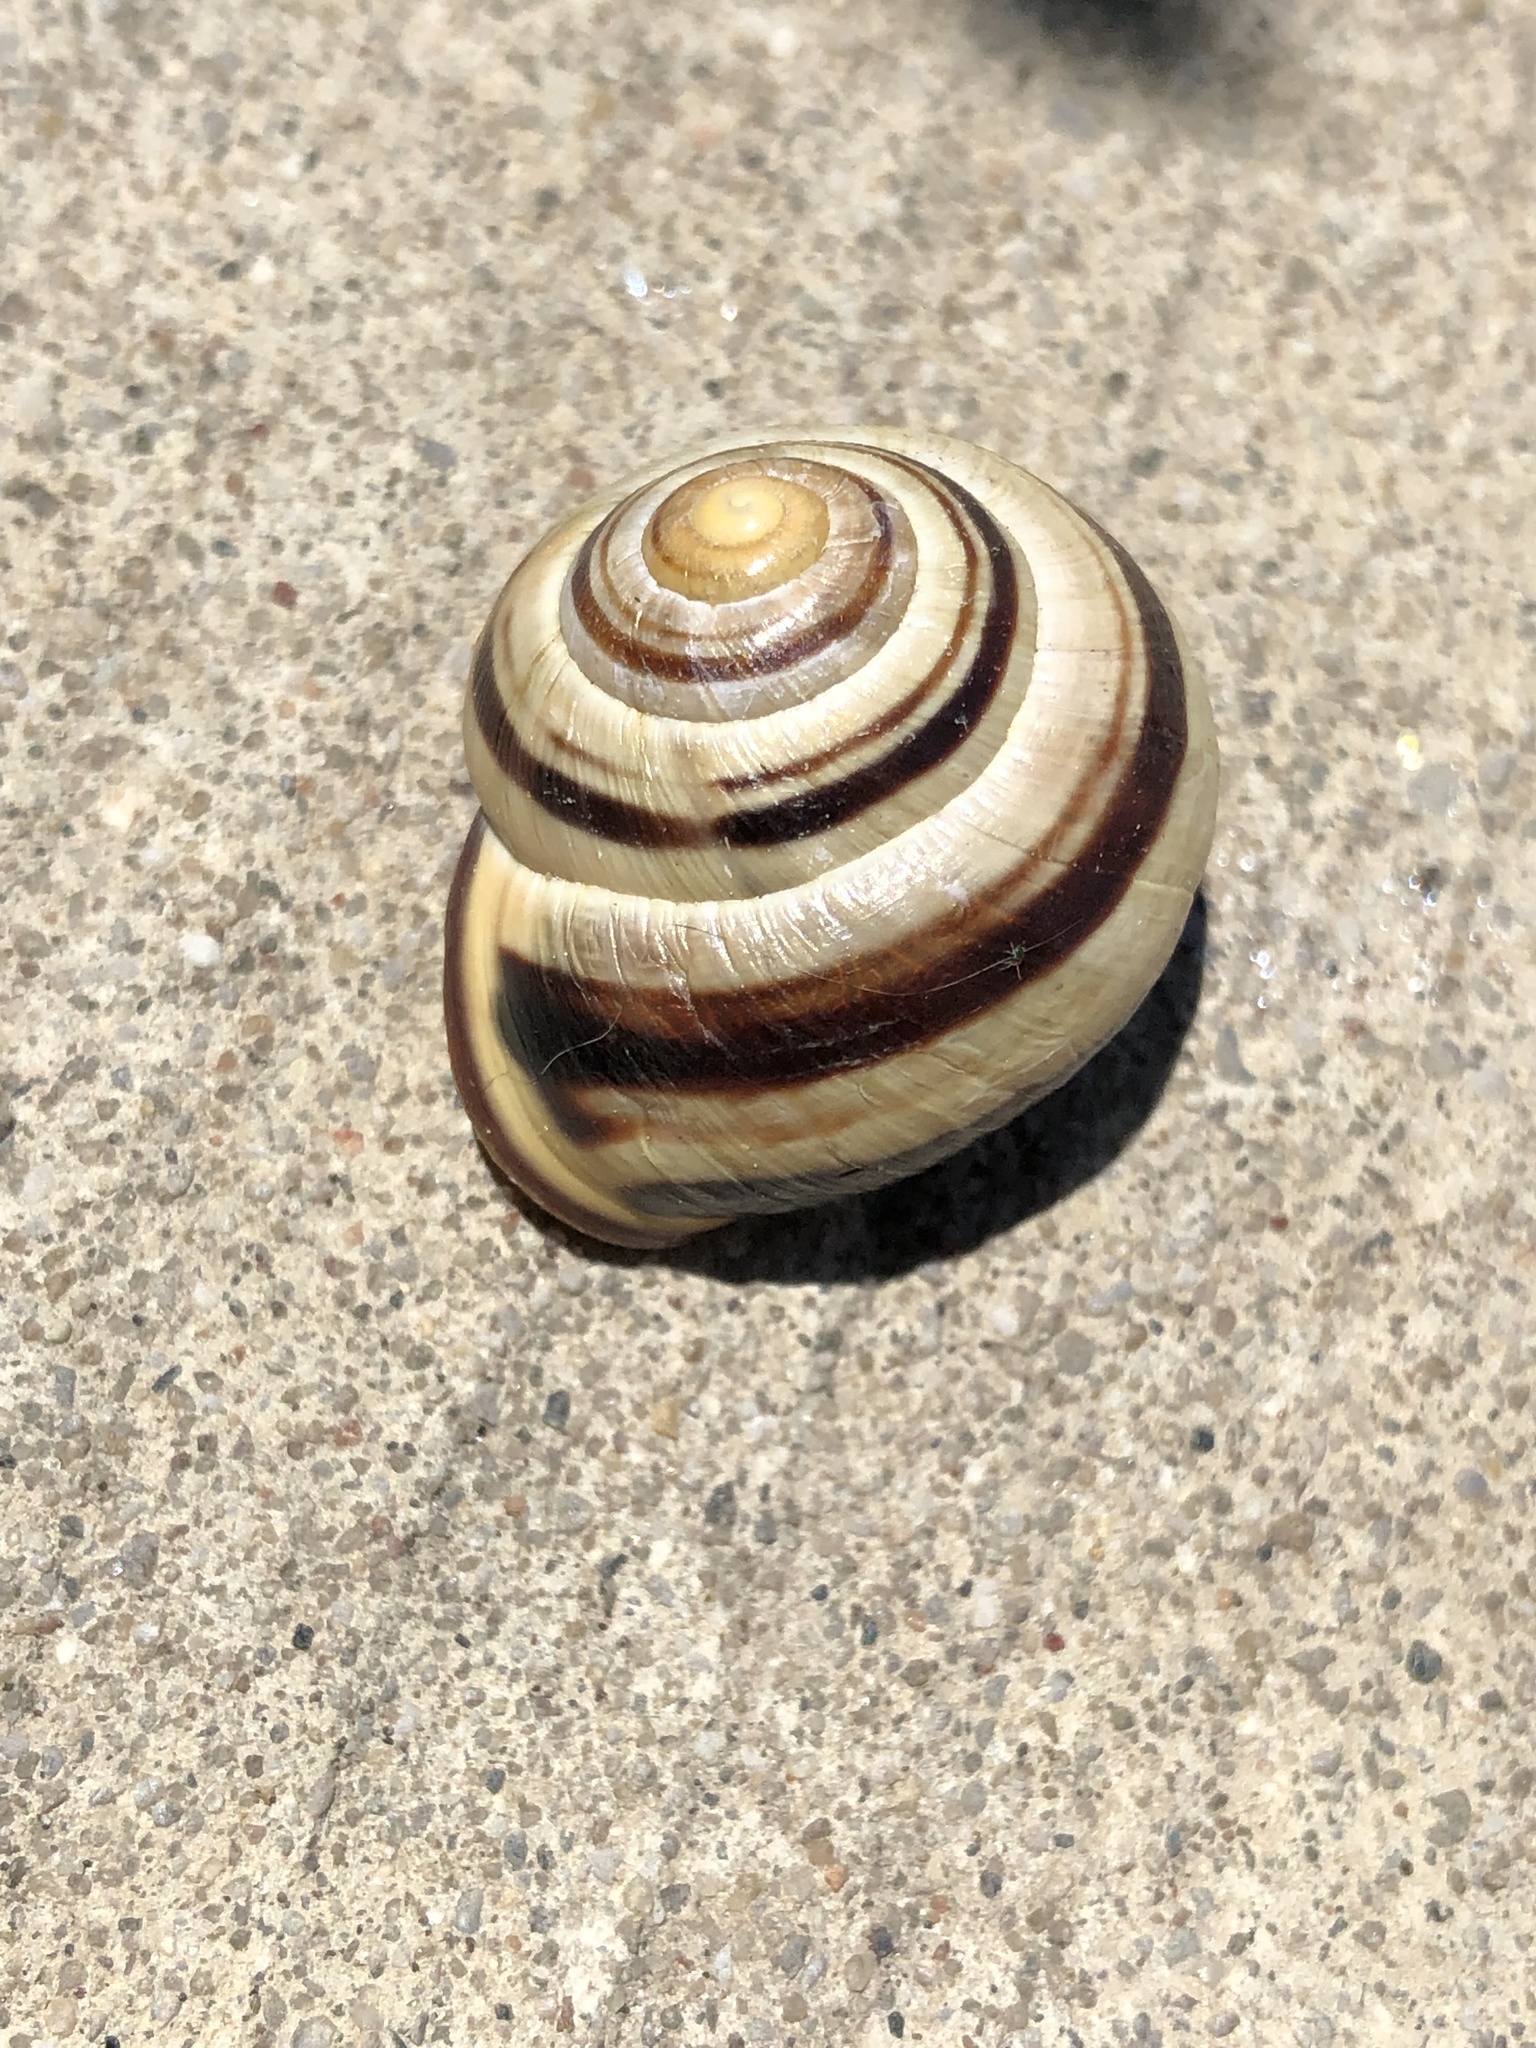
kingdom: Animalia
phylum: Mollusca
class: Gastropoda
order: Stylommatophora
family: Helicidae
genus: Cepaea
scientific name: Cepaea nemoralis
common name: Grovesnail
